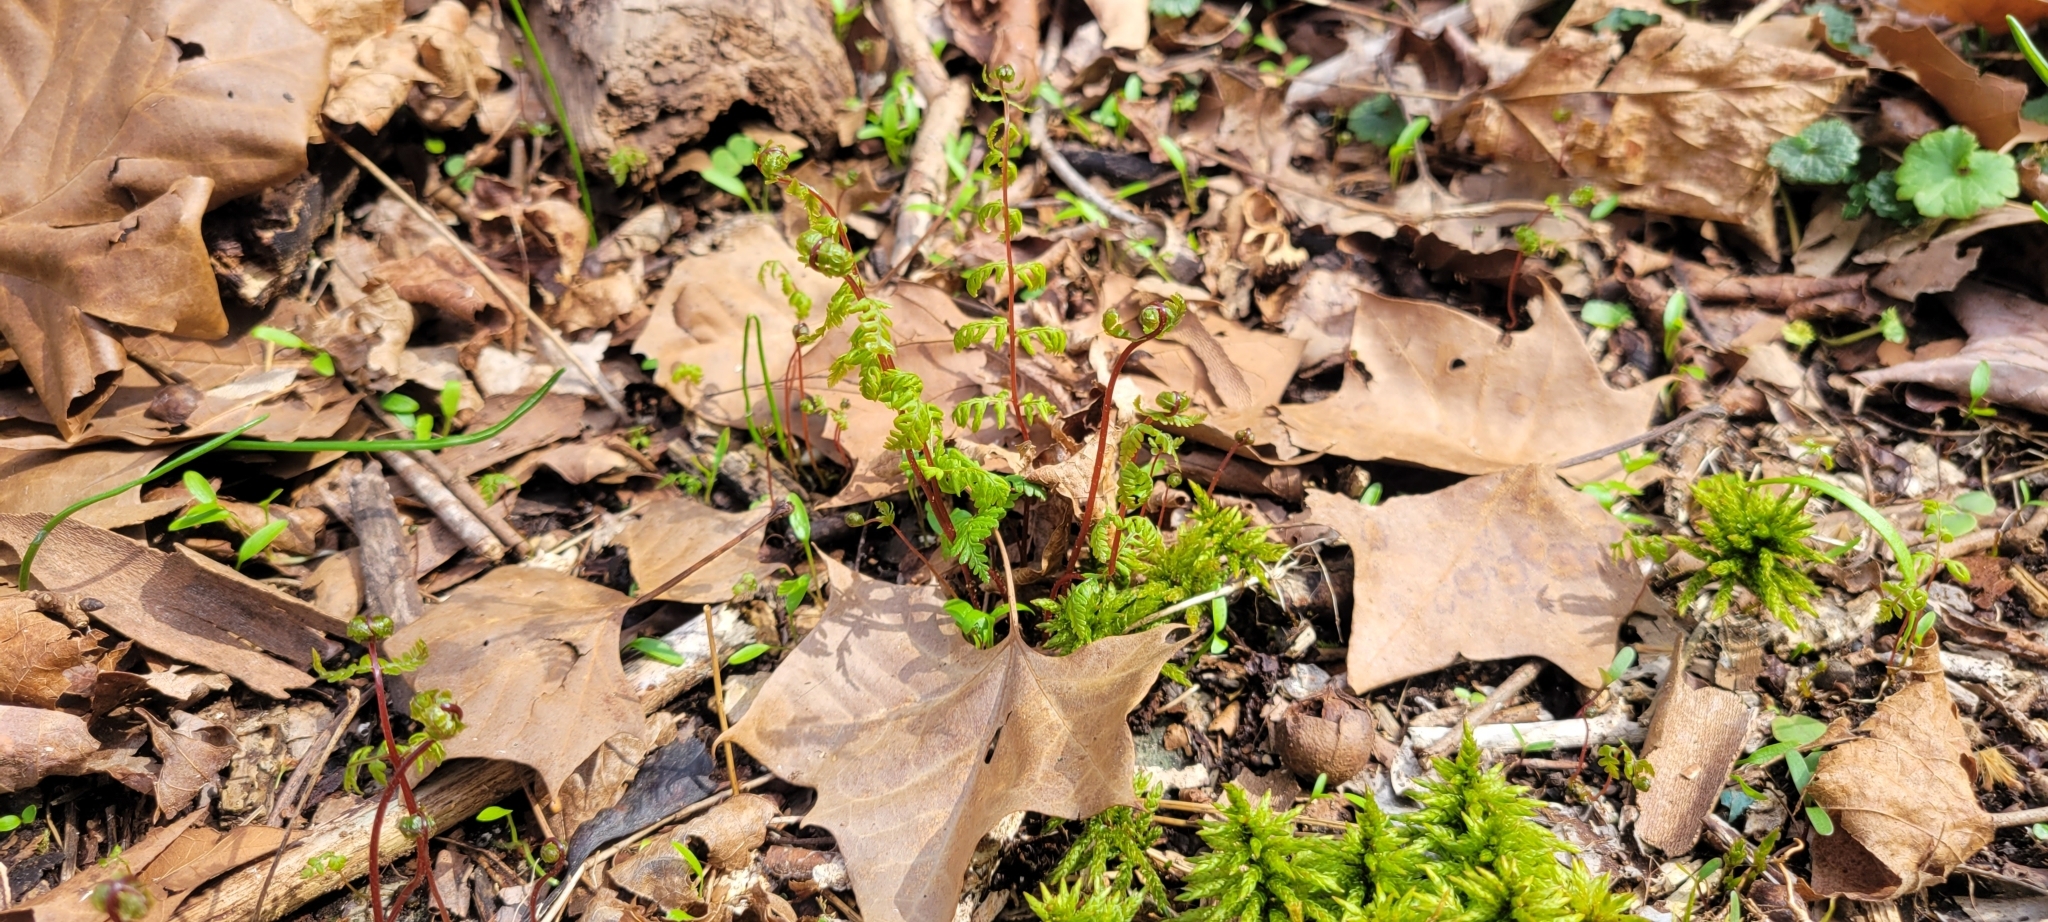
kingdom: Plantae
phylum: Tracheophyta
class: Polypodiopsida
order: Polypodiales
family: Cystopteridaceae
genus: Cystopteris
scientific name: Cystopteris bulbifera
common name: Bulblet bladder fern
